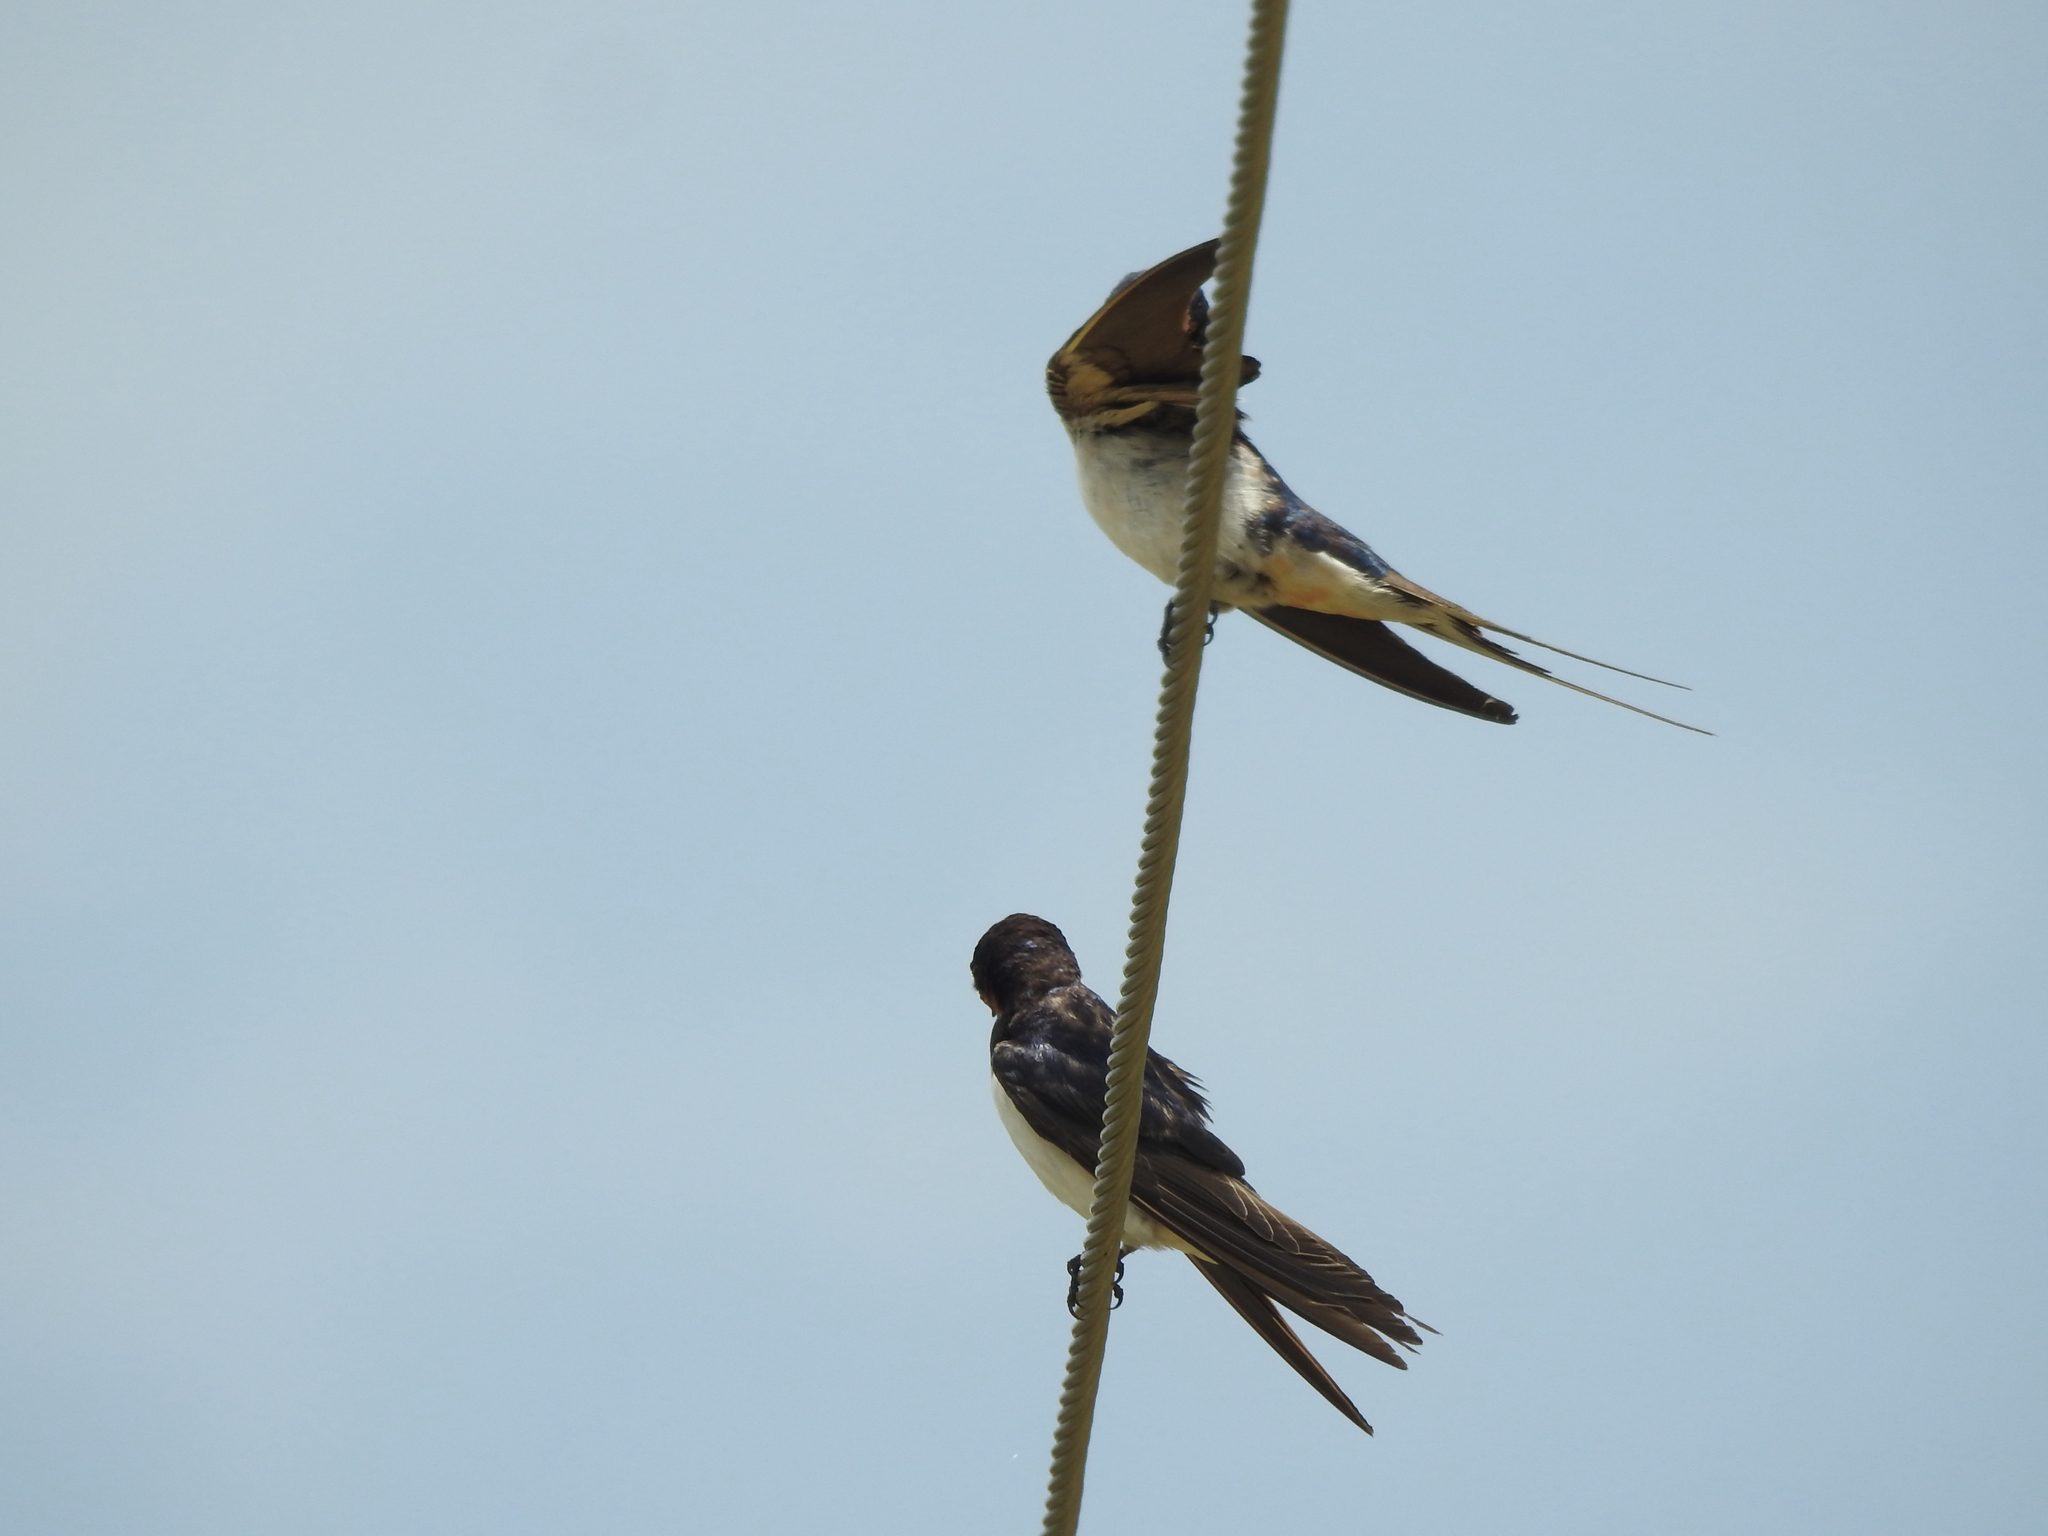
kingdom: Animalia
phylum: Chordata
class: Aves
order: Passeriformes
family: Hirundinidae
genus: Hirundo
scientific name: Hirundo rustica
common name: Barn swallow
